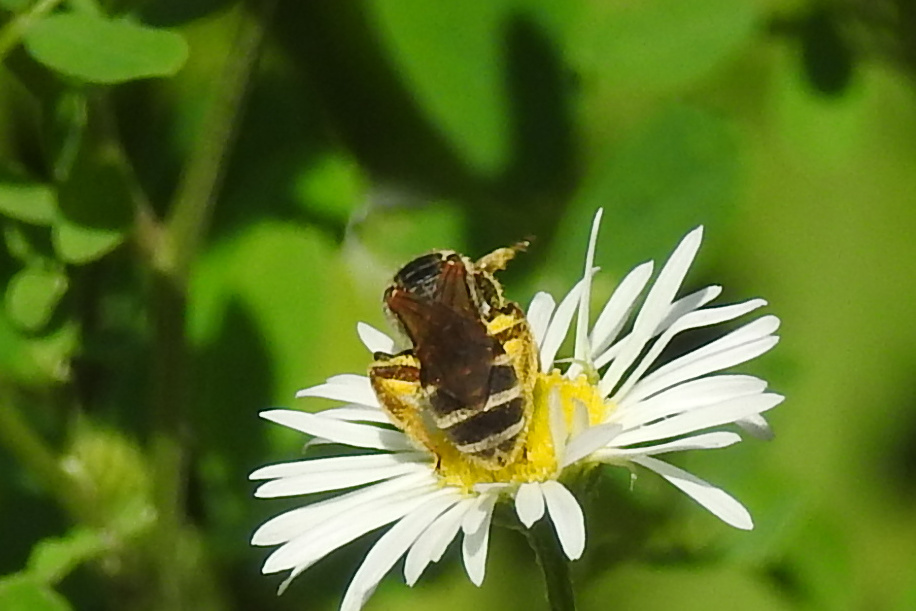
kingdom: Animalia
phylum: Arthropoda
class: Insecta
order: Hymenoptera
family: Halictidae
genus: Halictus
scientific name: Halictus parallelus
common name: Parallel-striped sweat bee
